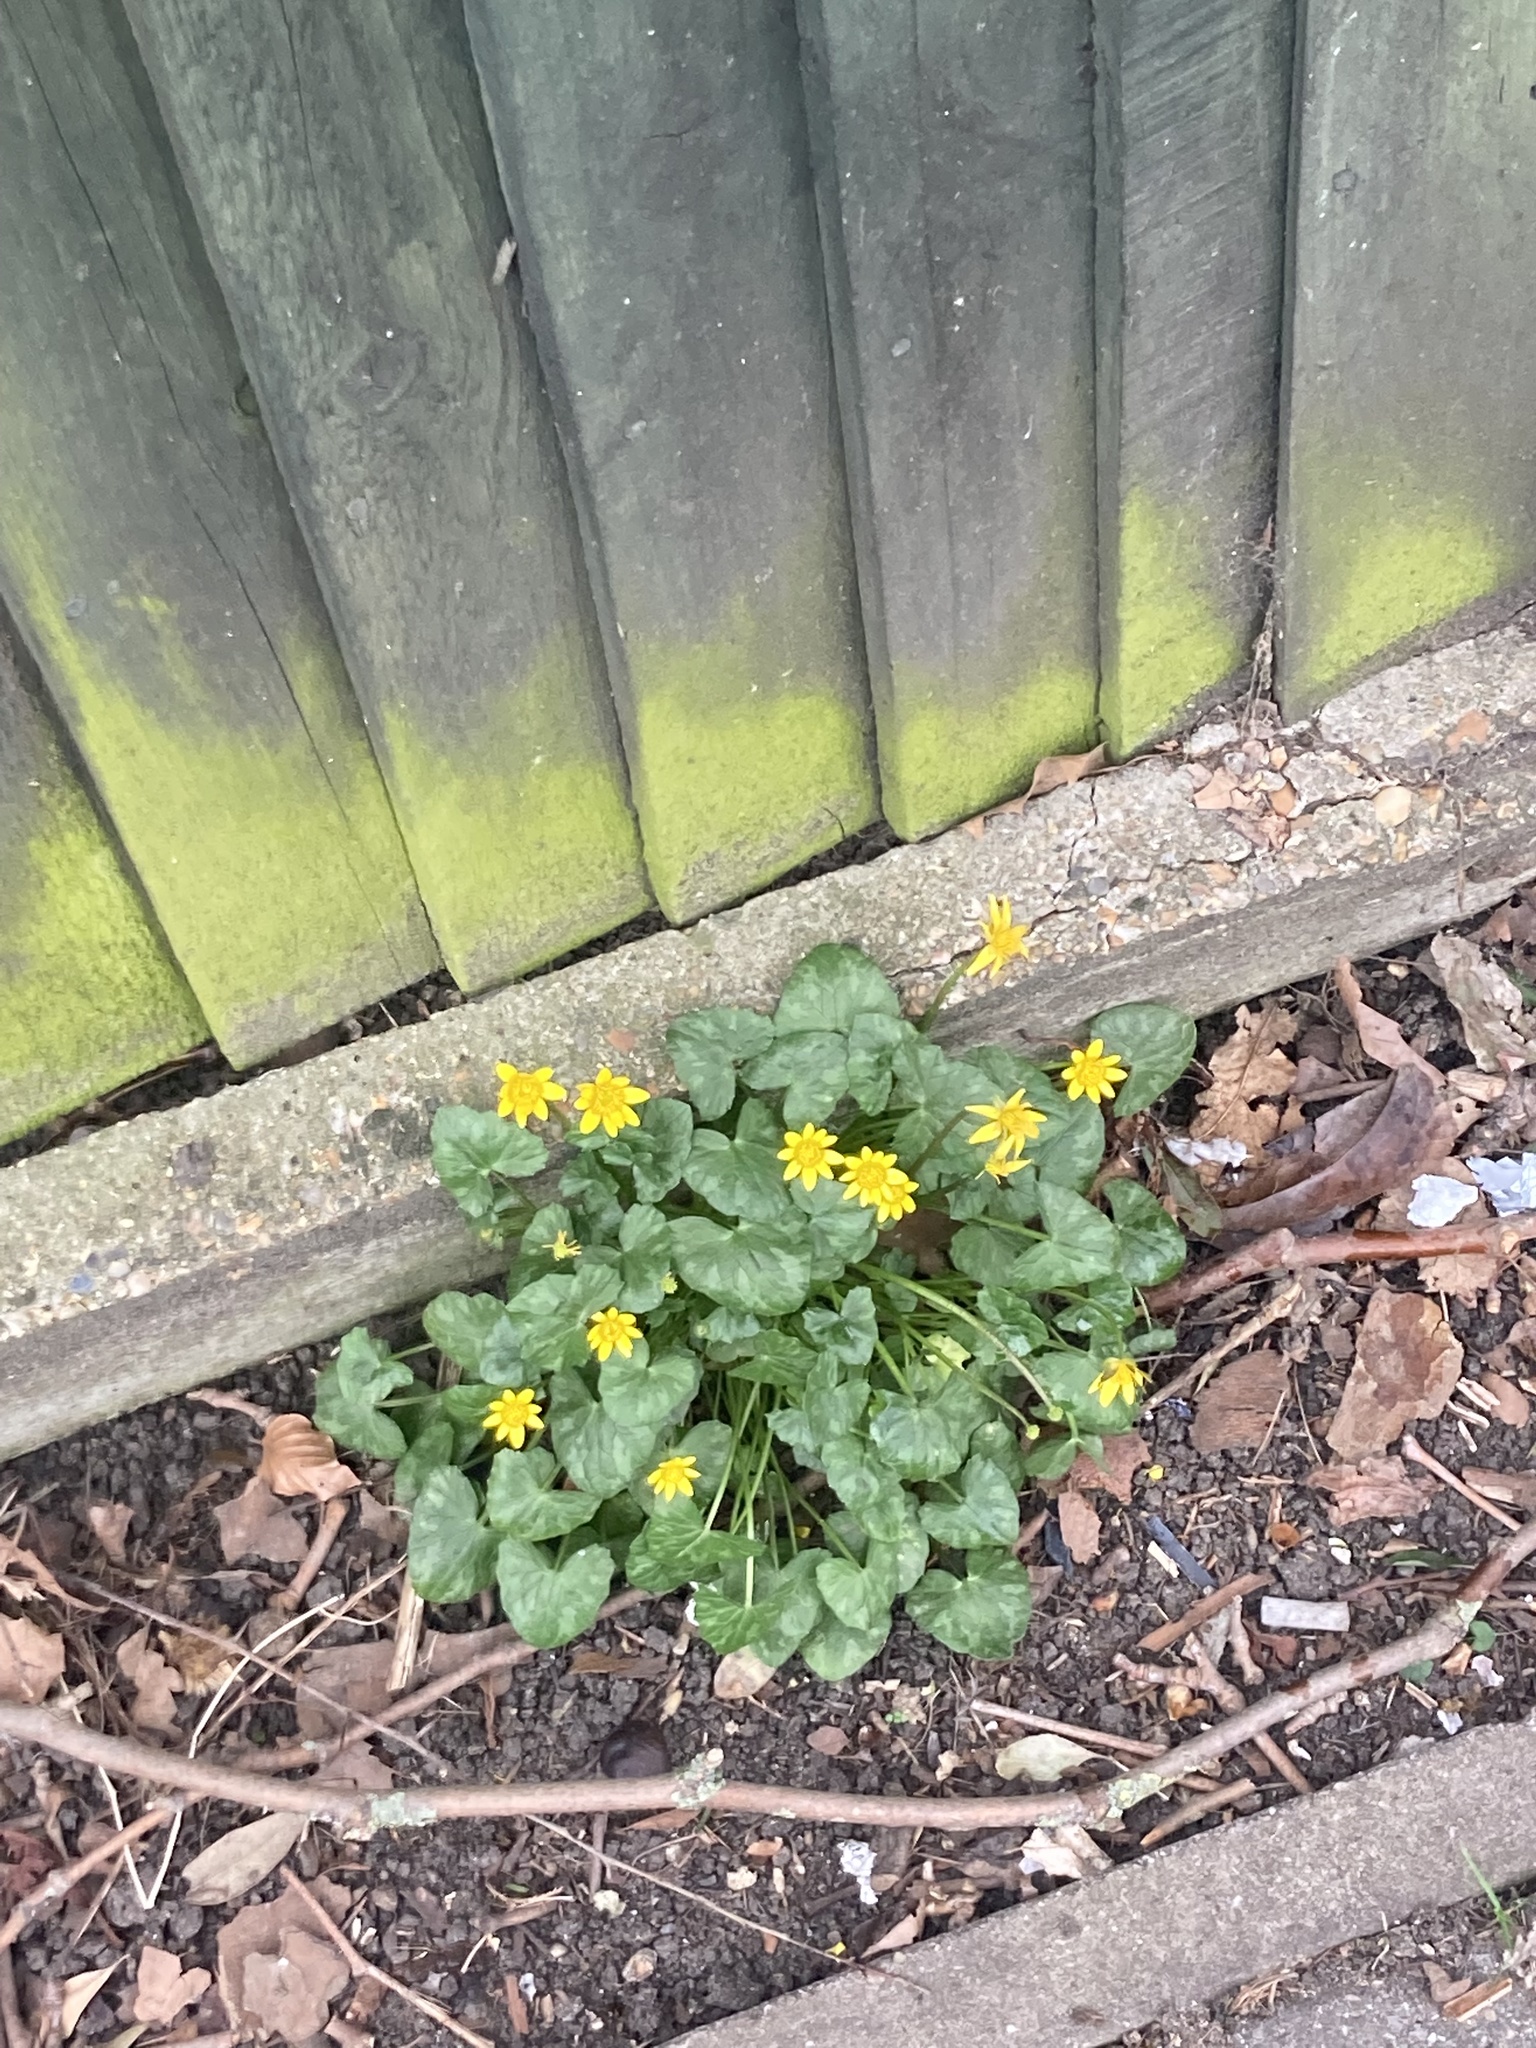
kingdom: Plantae
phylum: Tracheophyta
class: Magnoliopsida
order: Ranunculales
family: Ranunculaceae
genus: Ficaria
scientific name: Ficaria verna
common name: Lesser celandine
